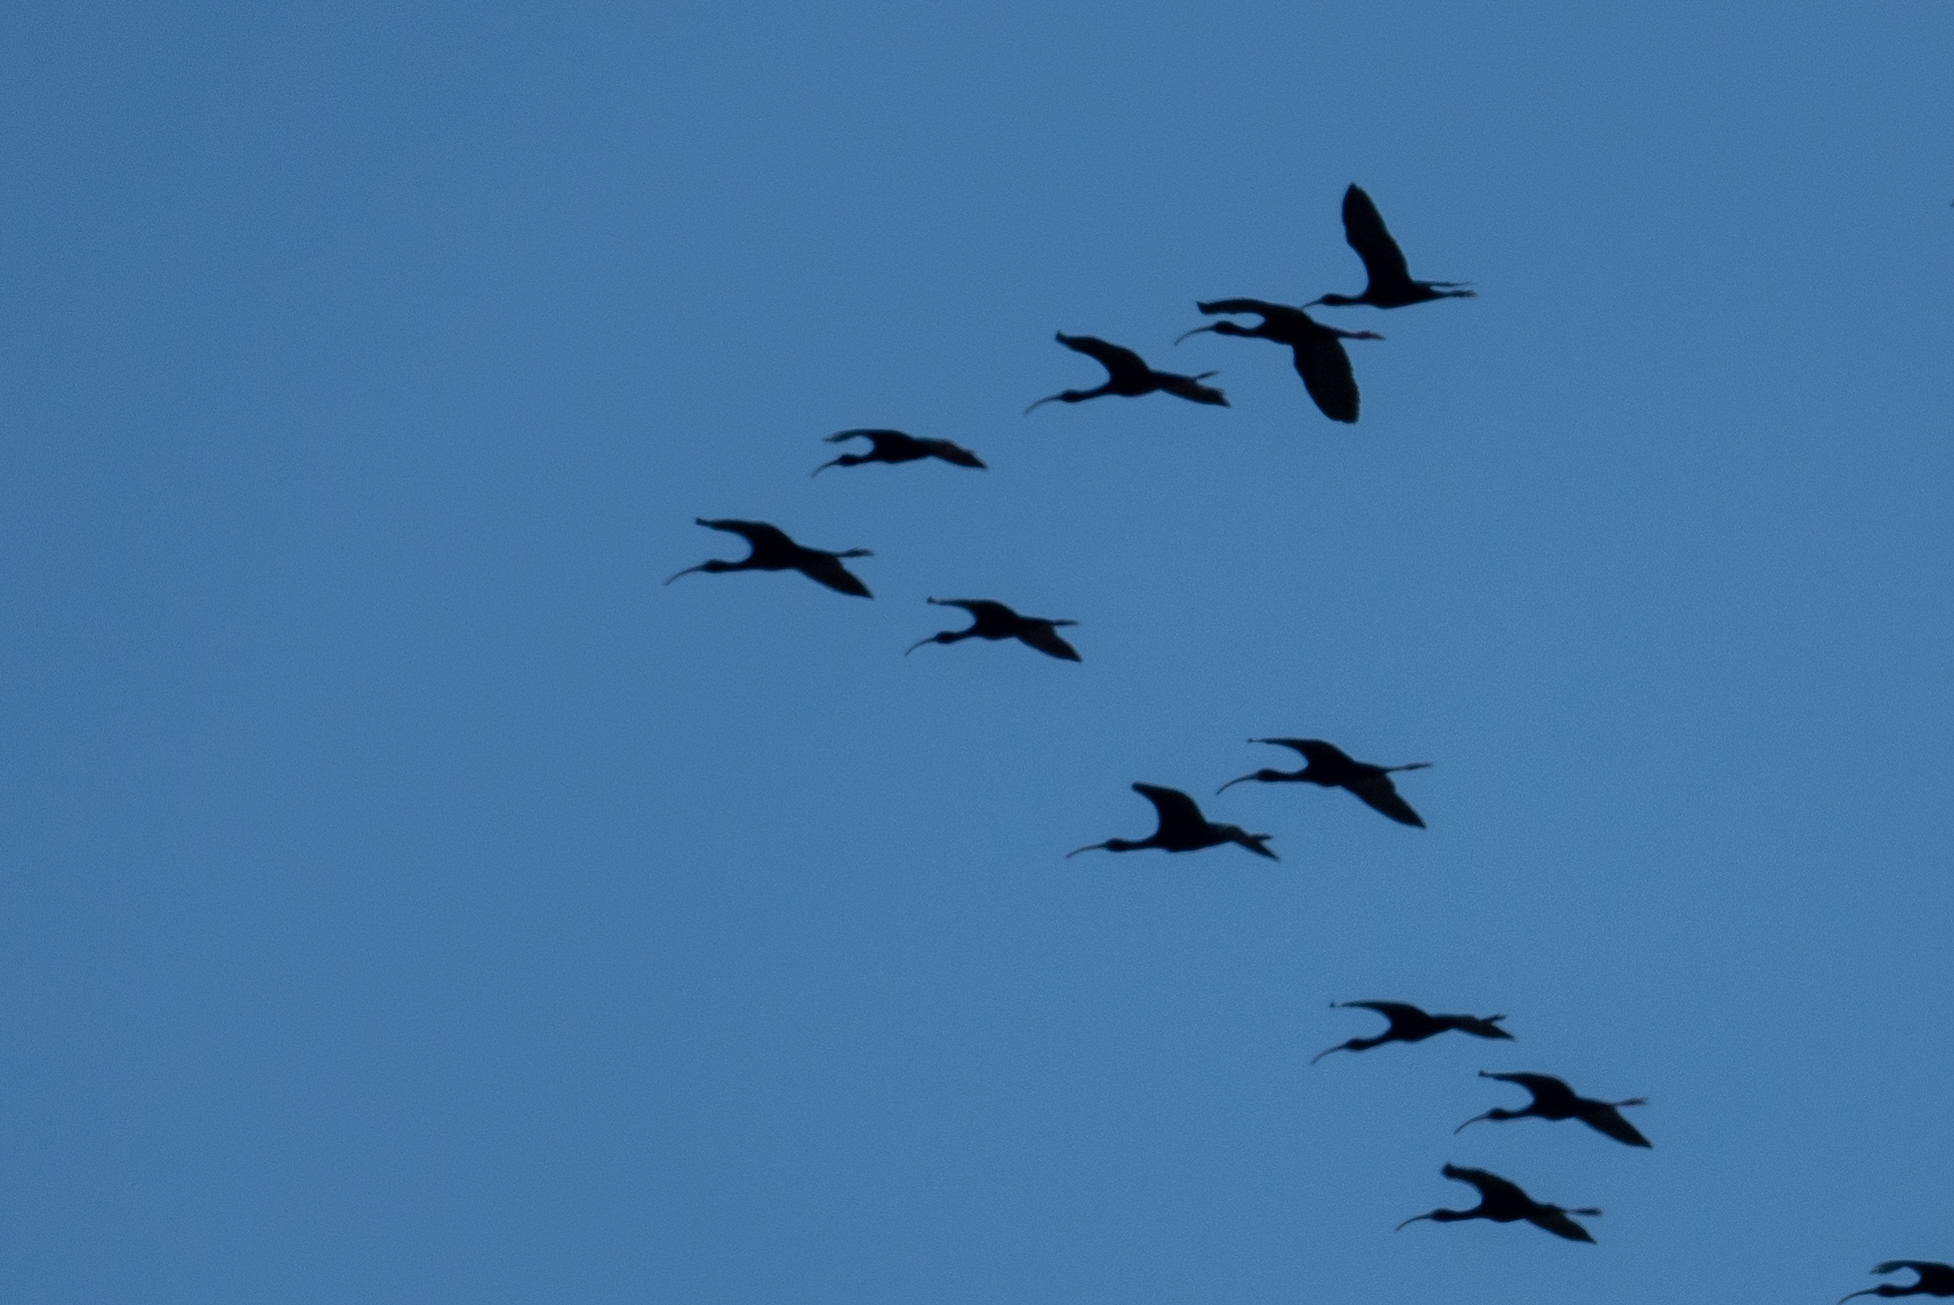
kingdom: Animalia
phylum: Chordata
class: Aves
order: Pelecaniformes
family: Threskiornithidae
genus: Plegadis
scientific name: Plegadis chihi
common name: White-faced ibis
